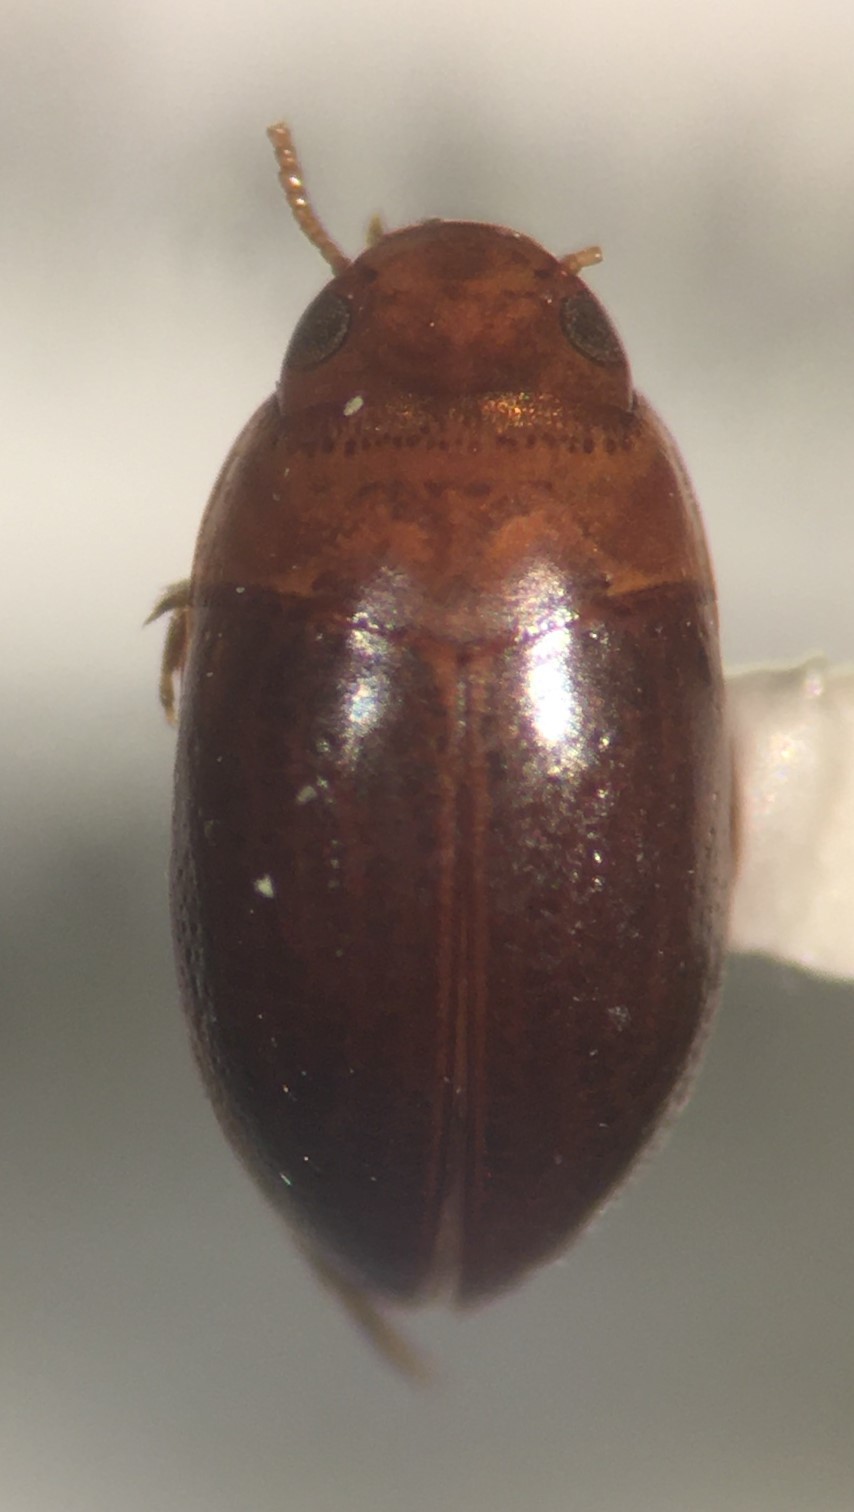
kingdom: Animalia
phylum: Arthropoda
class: Insecta
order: Coleoptera
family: Noteridae
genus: Suphisellus
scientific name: Suphisellus
